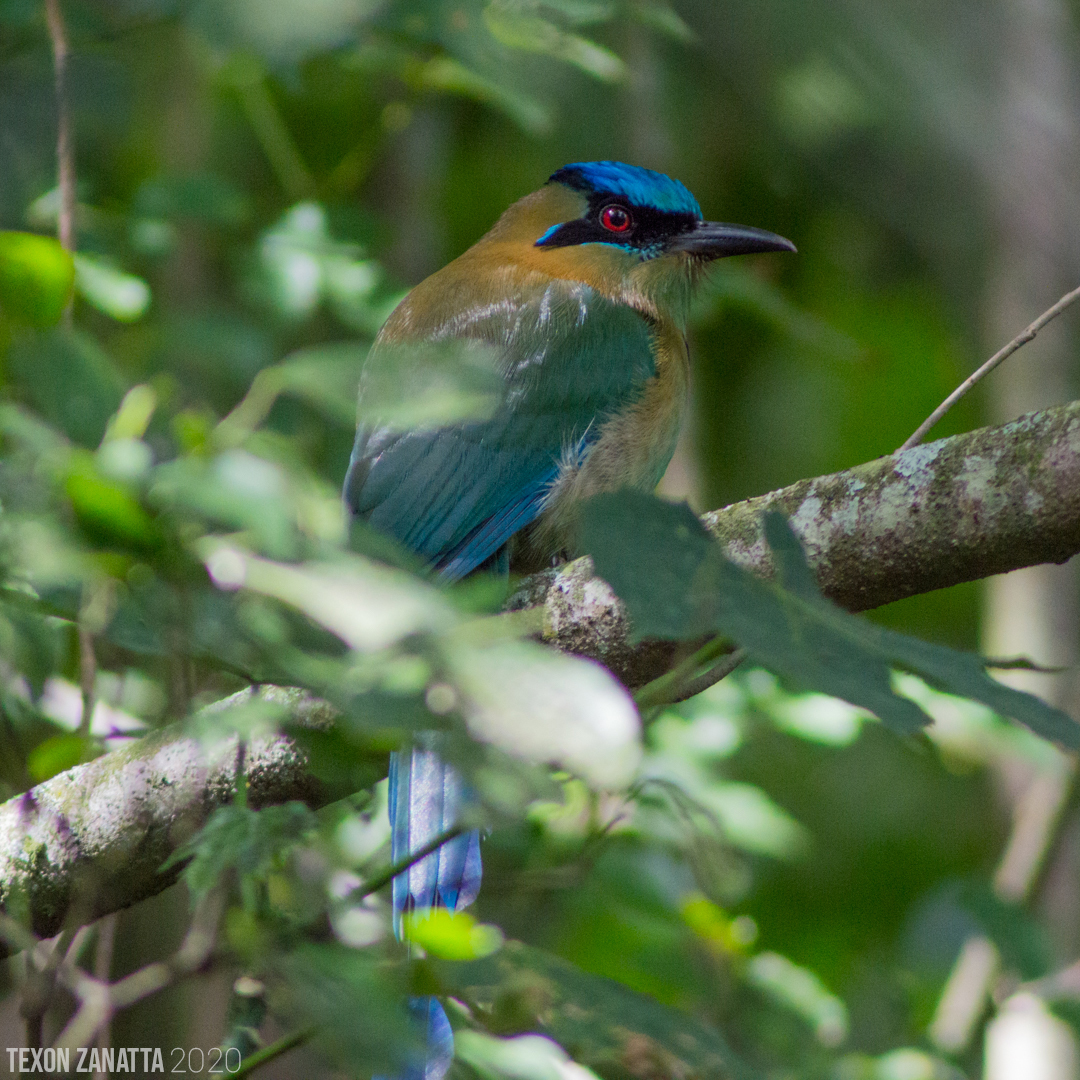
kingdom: Animalia
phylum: Chordata
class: Aves
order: Coraciiformes
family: Momotidae
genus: Momotus
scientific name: Momotus coeruliceps
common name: Blue-capped motmot
